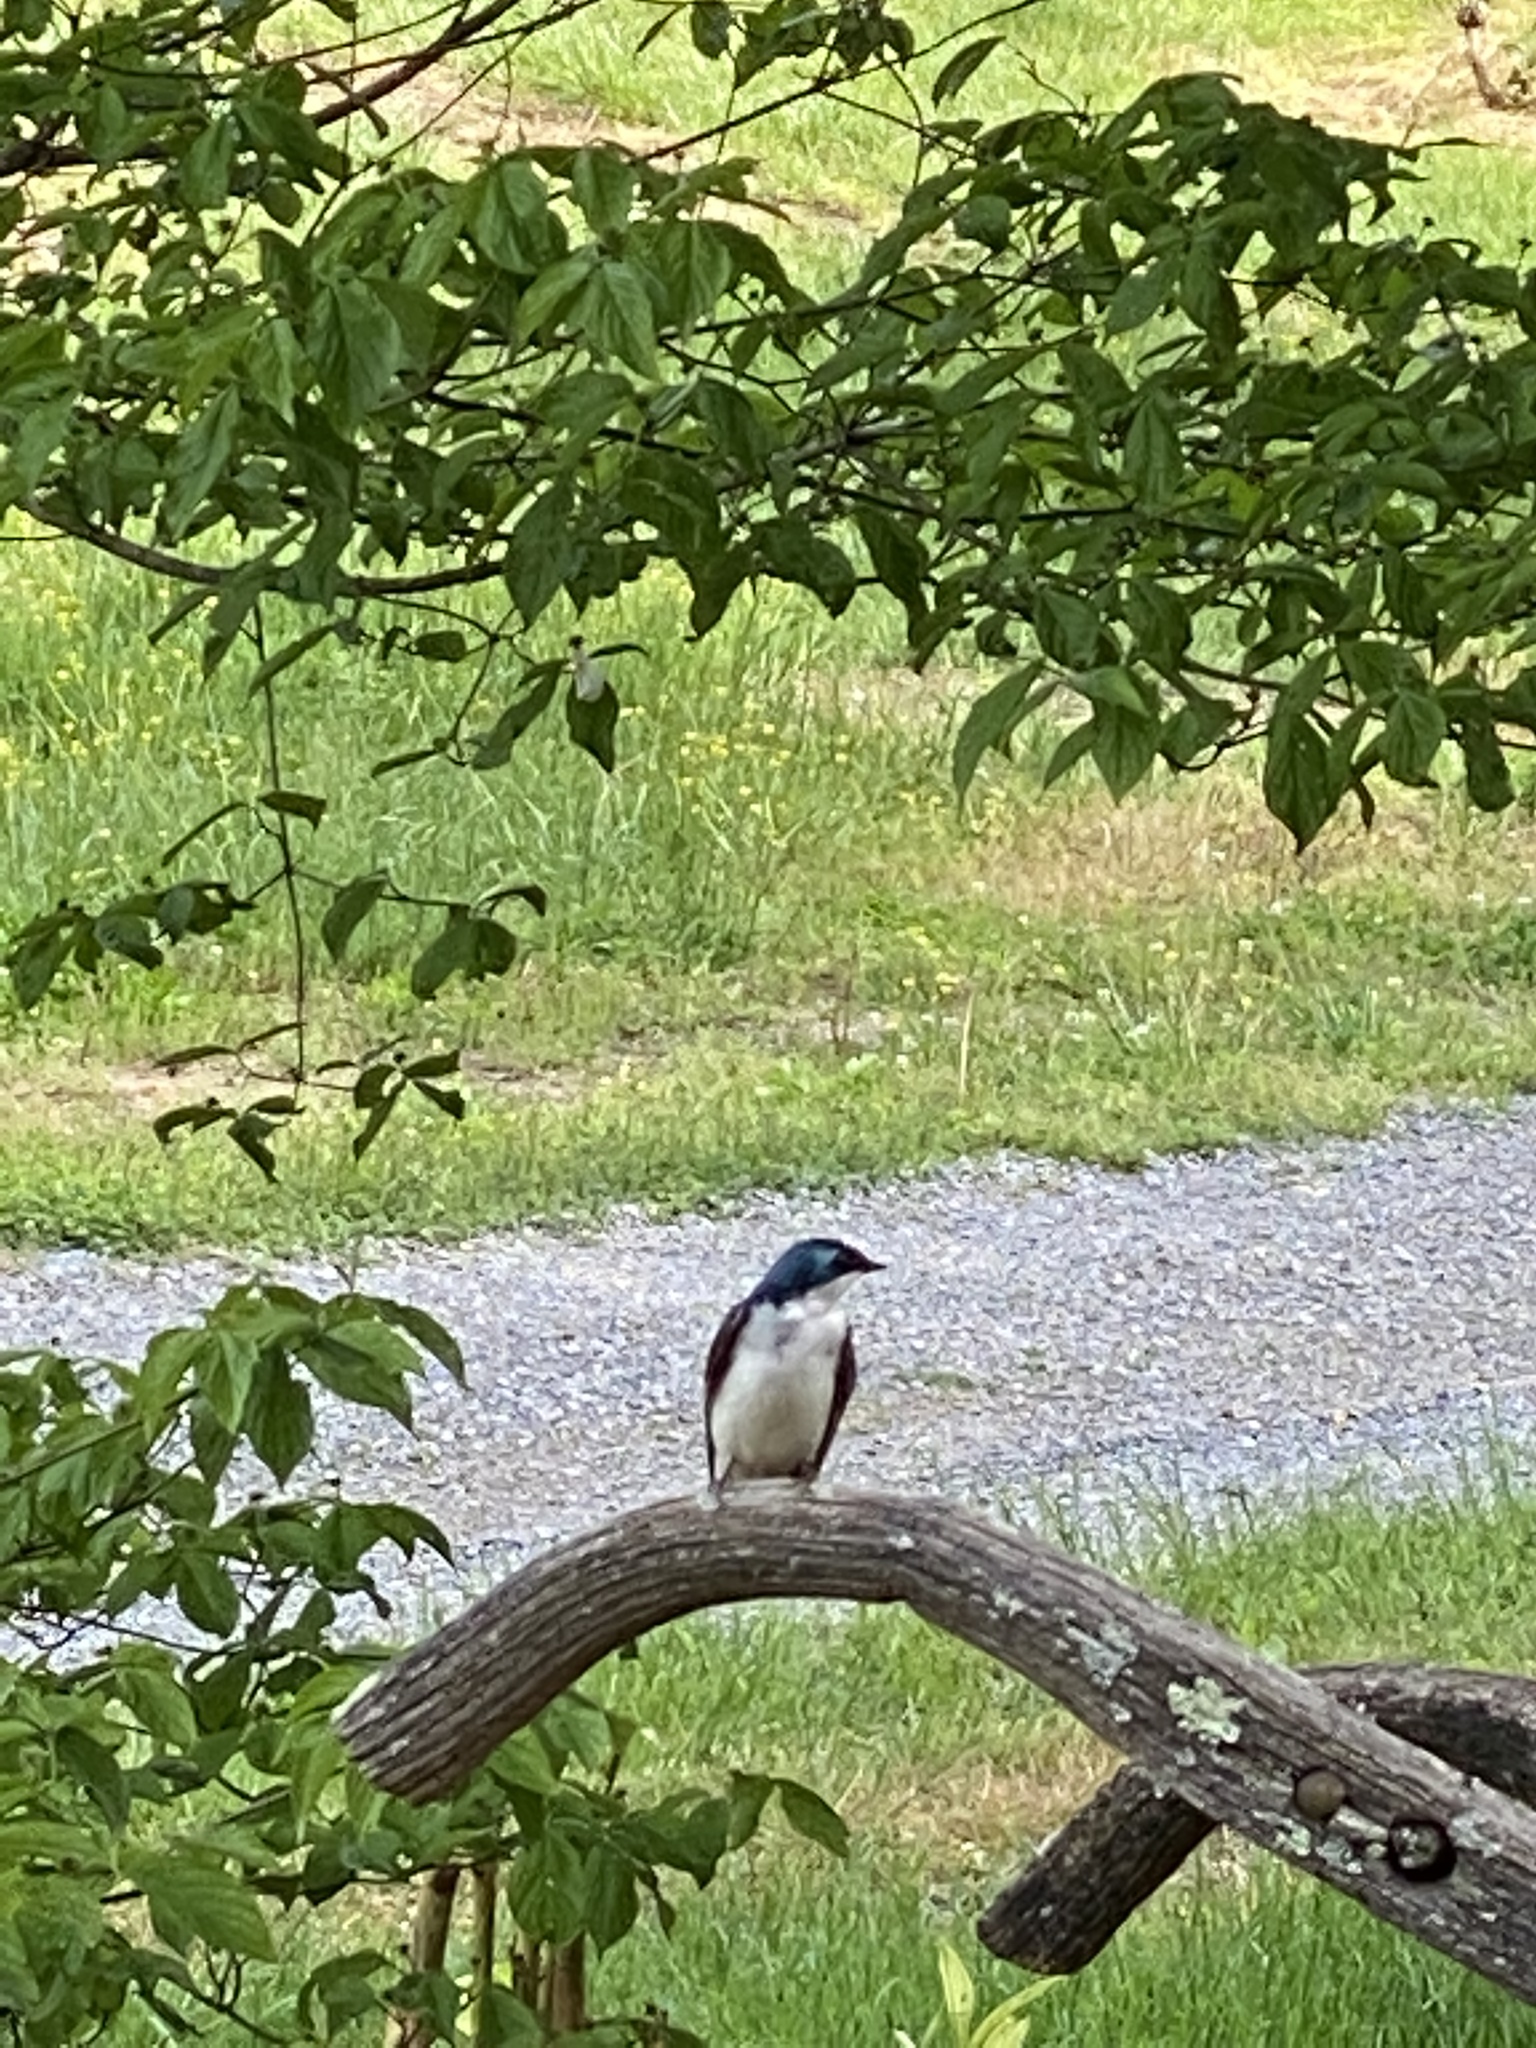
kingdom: Animalia
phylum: Chordata
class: Aves
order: Passeriformes
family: Hirundinidae
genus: Tachycineta
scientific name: Tachycineta bicolor
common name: Tree swallow
